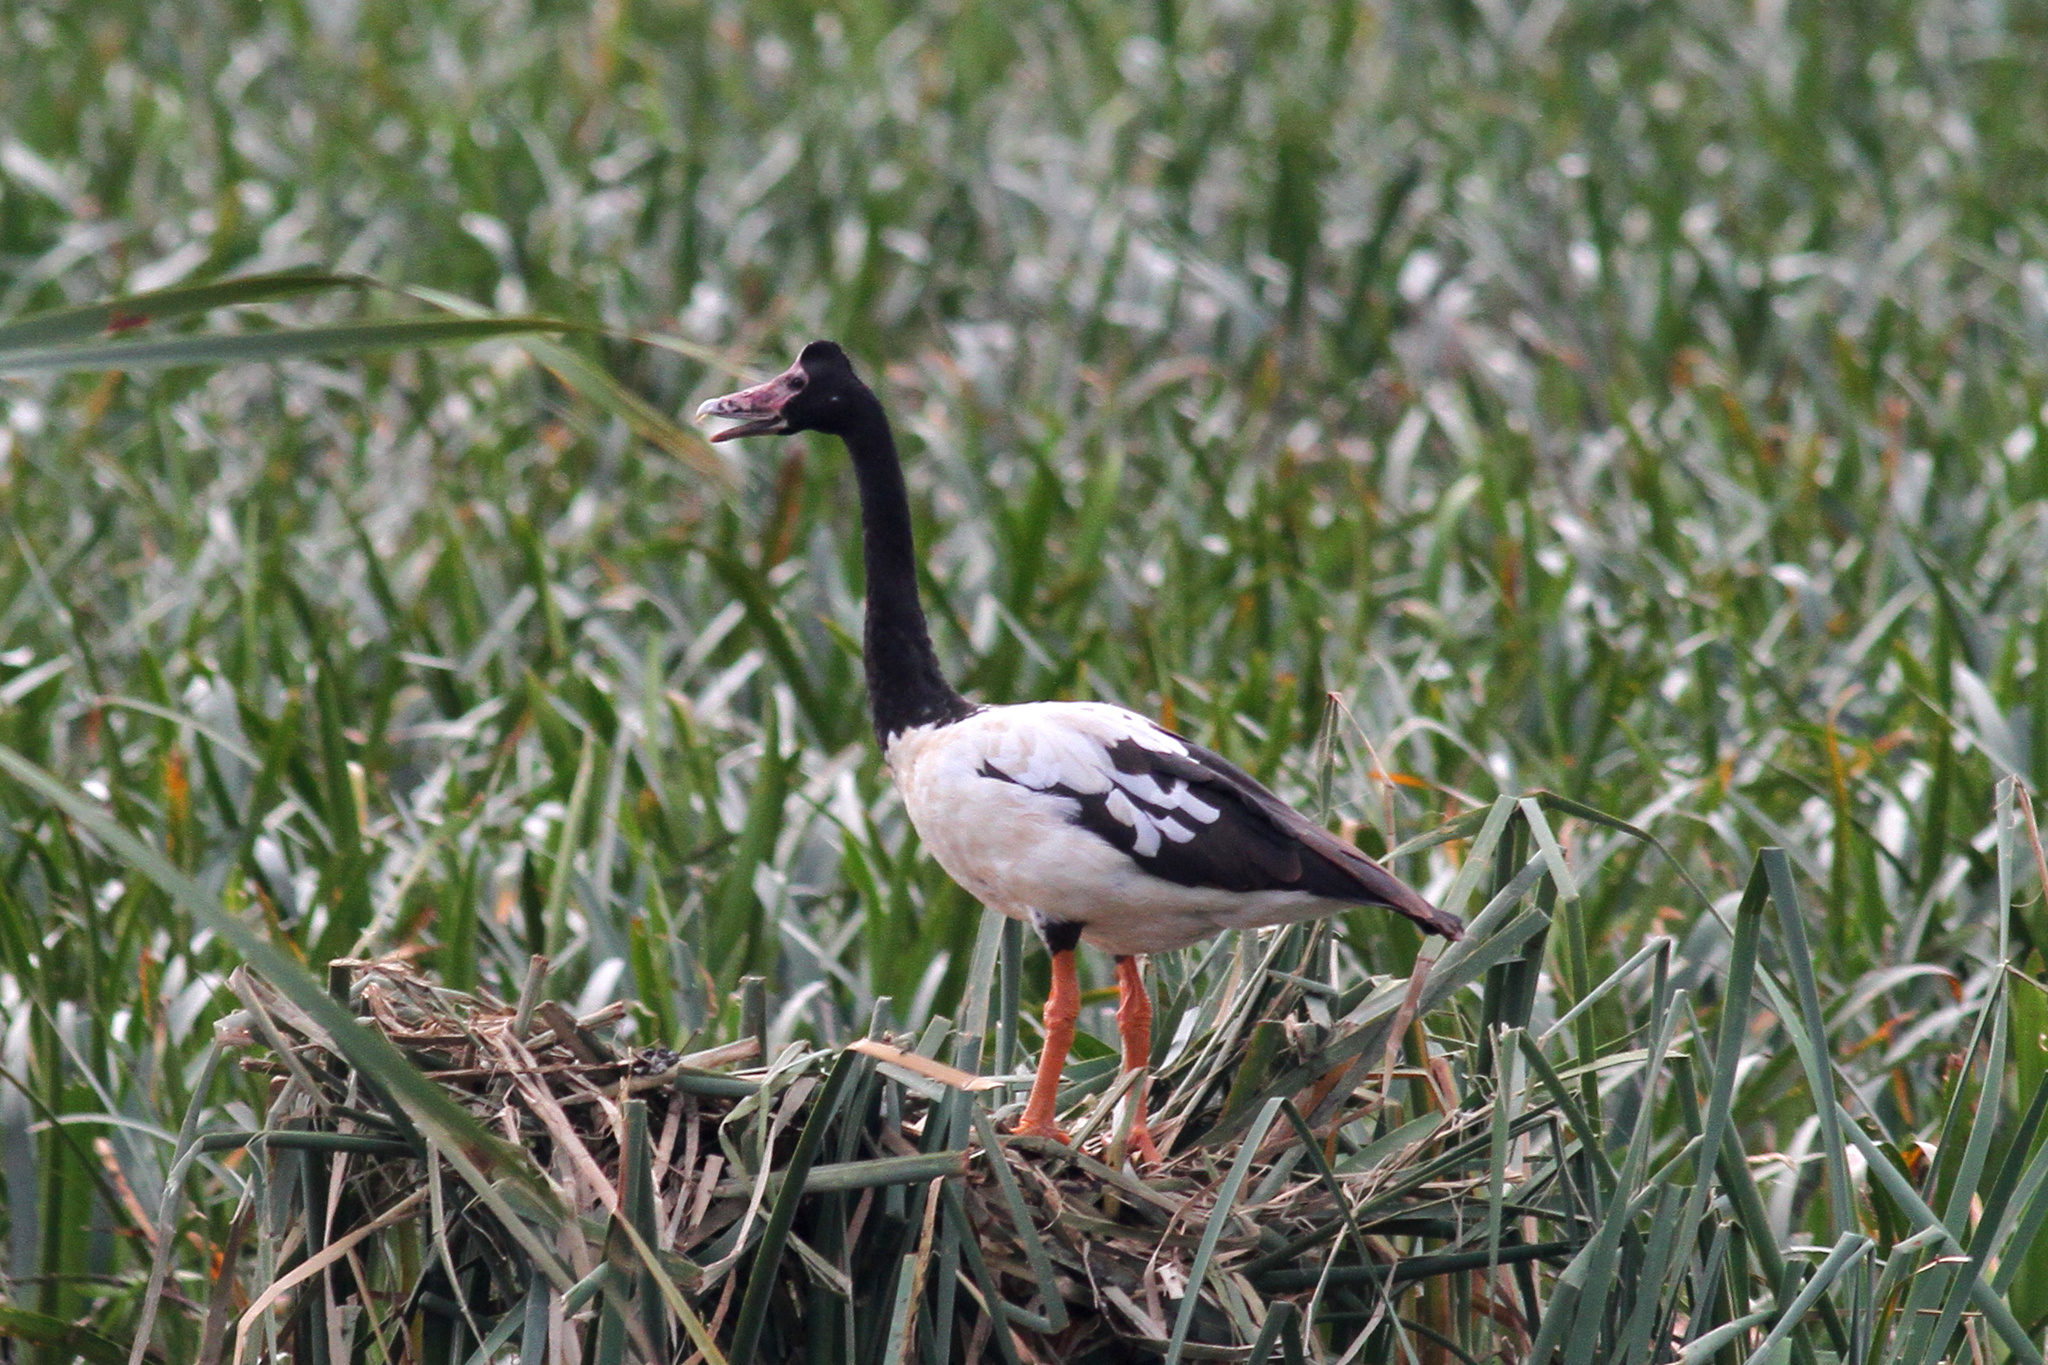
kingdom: Animalia
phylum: Chordata
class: Aves
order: Anseriformes
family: Anseranatidae
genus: Anseranas
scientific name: Anseranas semipalmata
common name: Magpie goose
